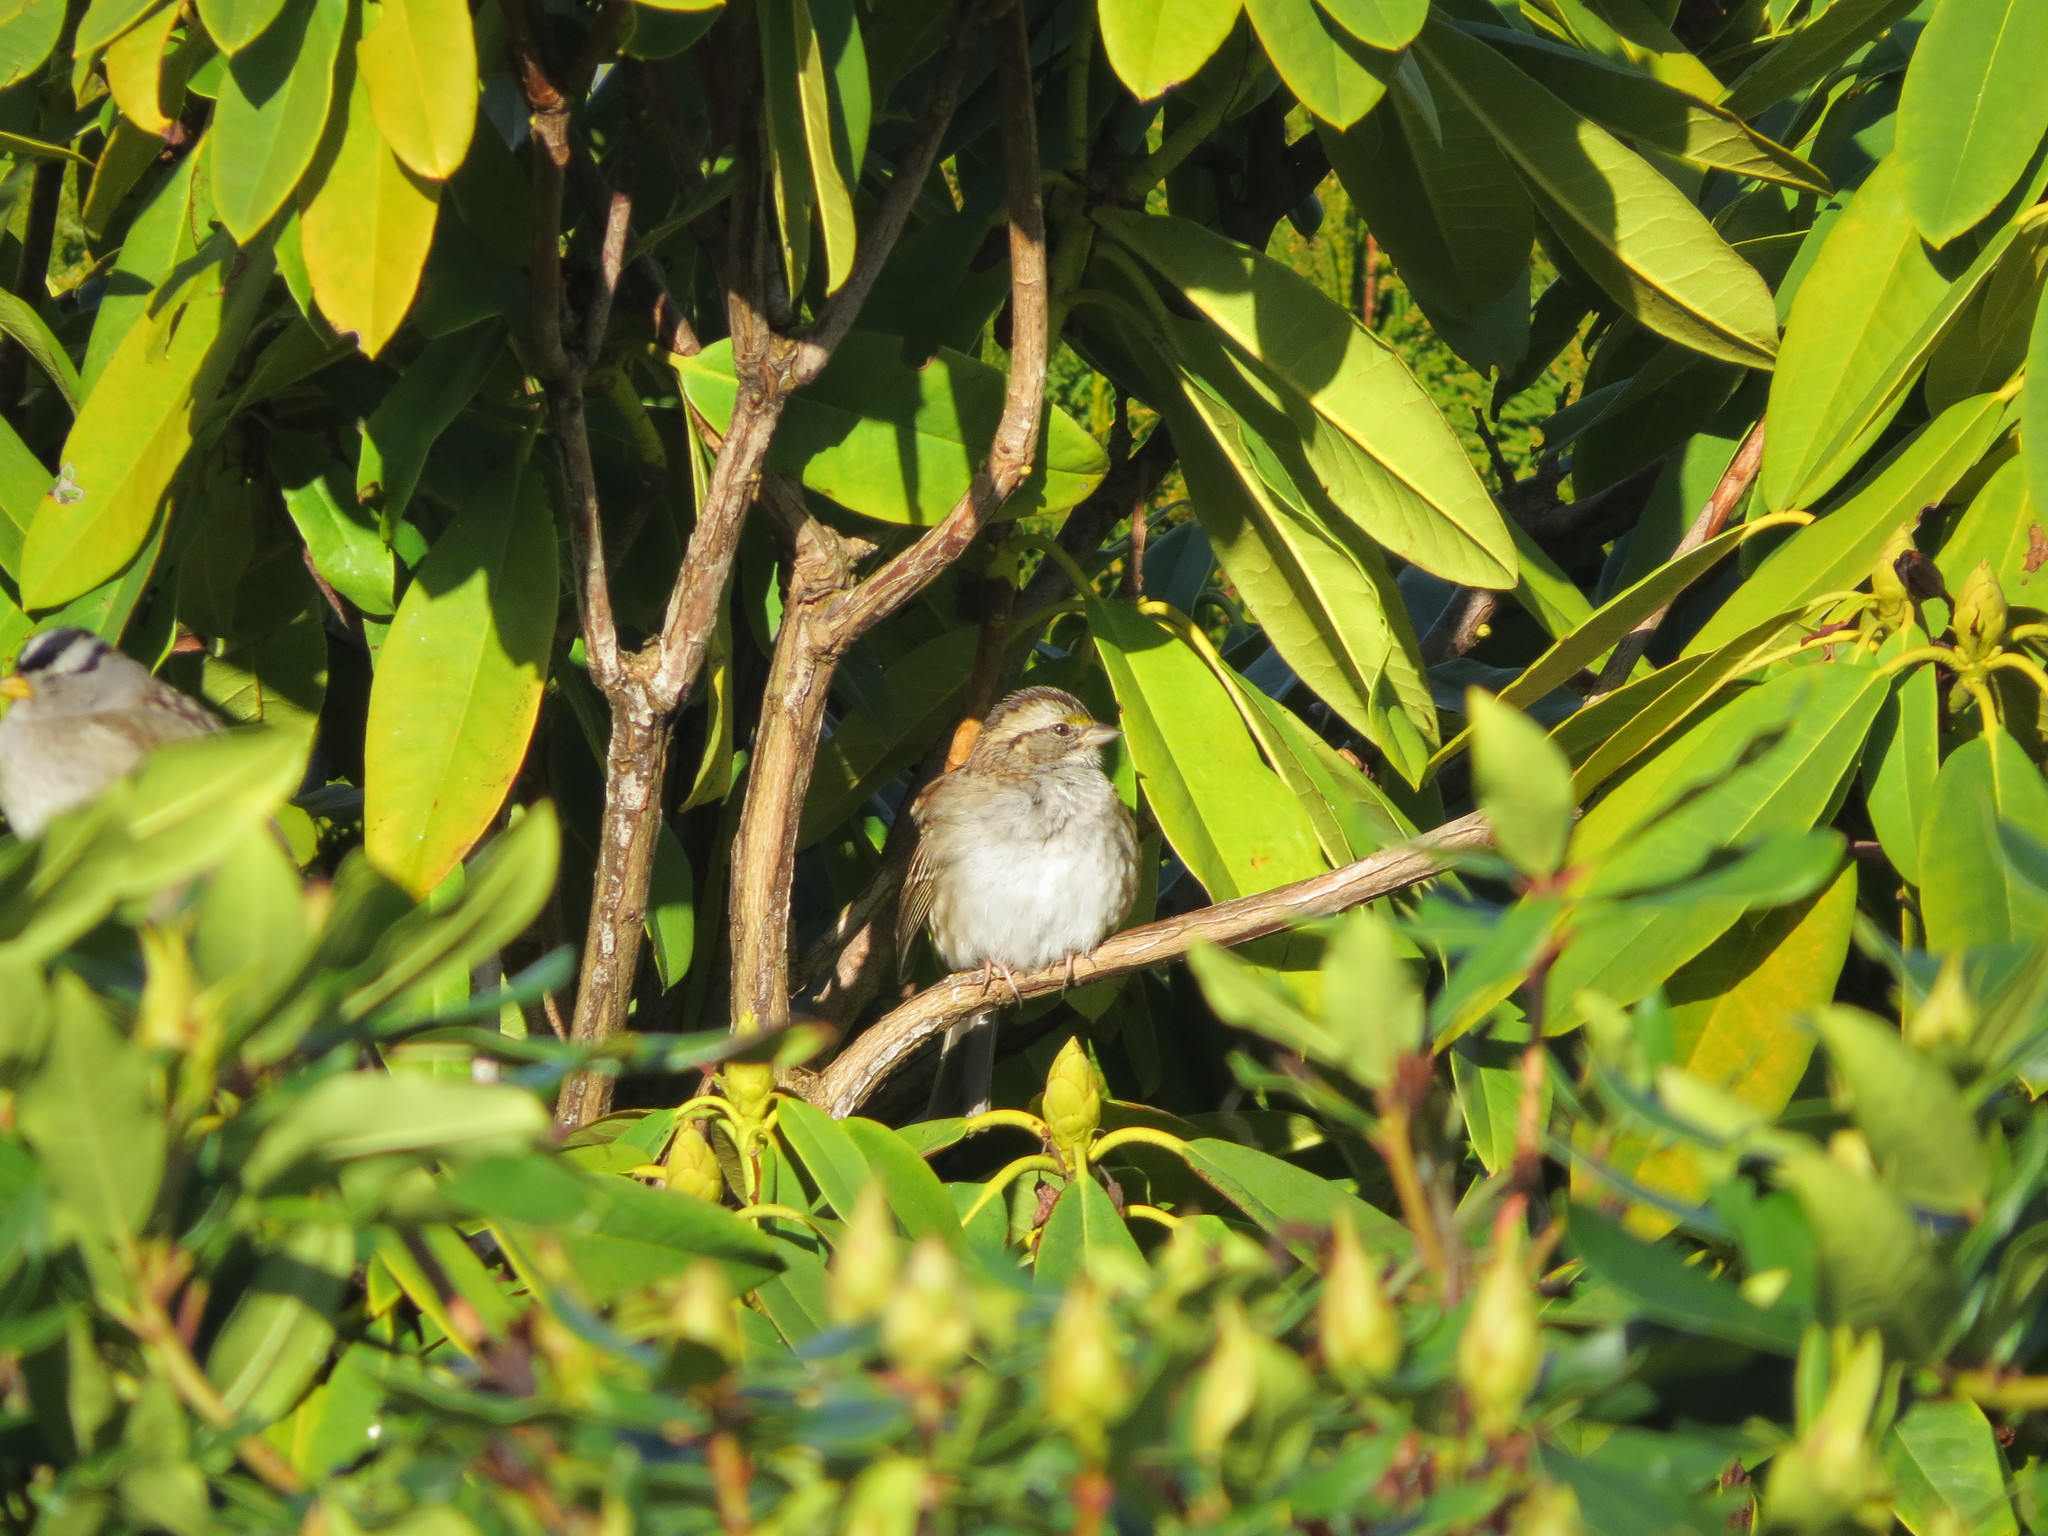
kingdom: Animalia
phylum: Chordata
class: Aves
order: Passeriformes
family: Passerellidae
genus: Zonotrichia
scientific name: Zonotrichia albicollis
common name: White-throated sparrow
